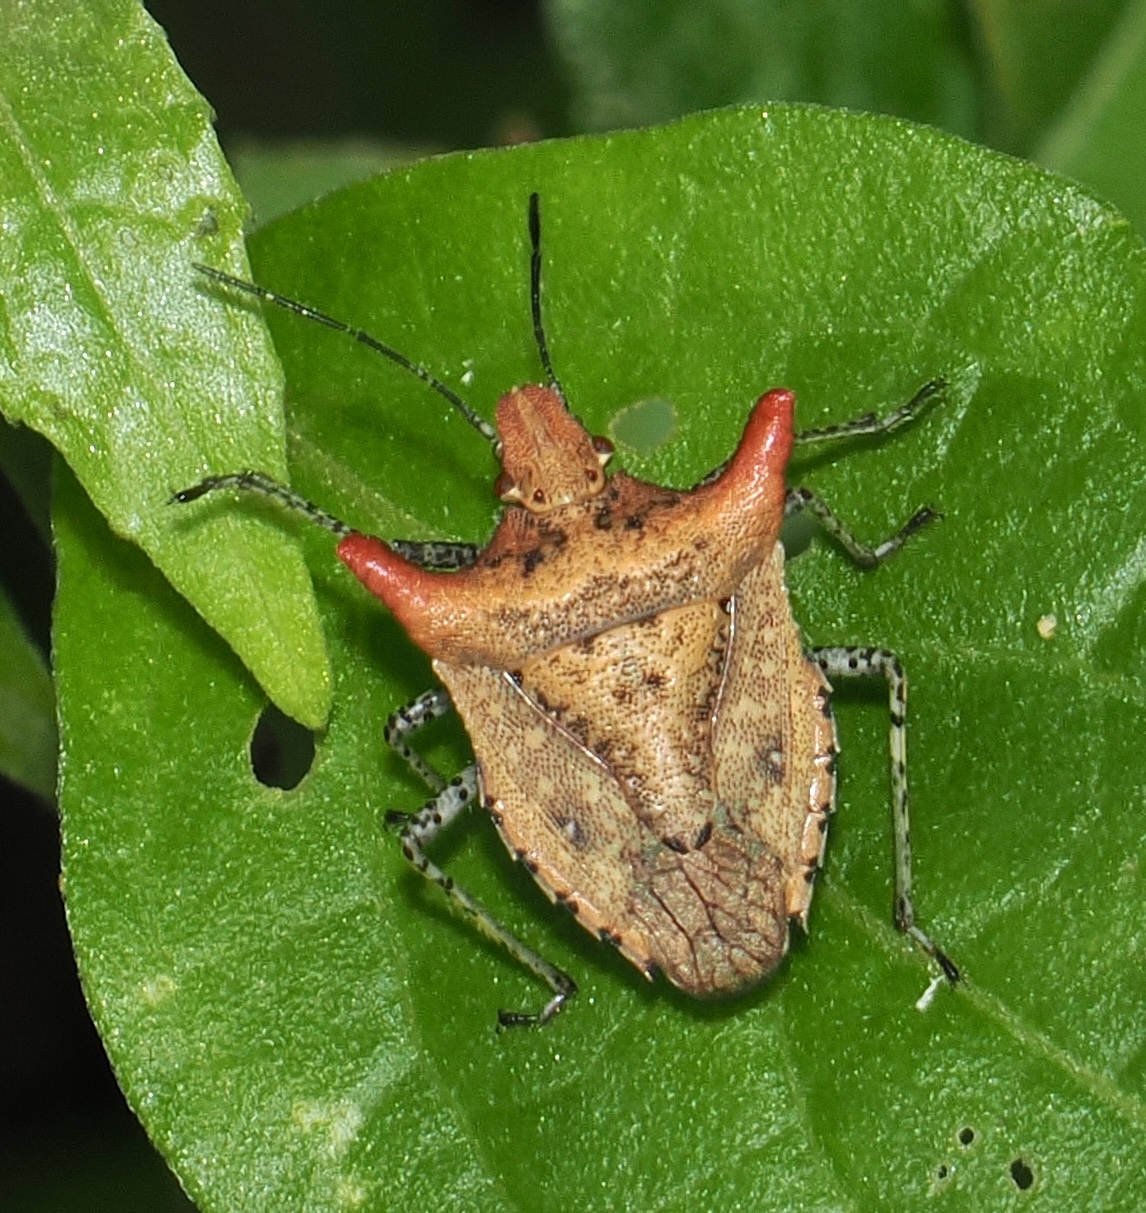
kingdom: Animalia
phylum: Arthropoda
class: Insecta
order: Hemiptera
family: Pentatomidae
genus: Euschistus
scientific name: Euschistus cornutus
